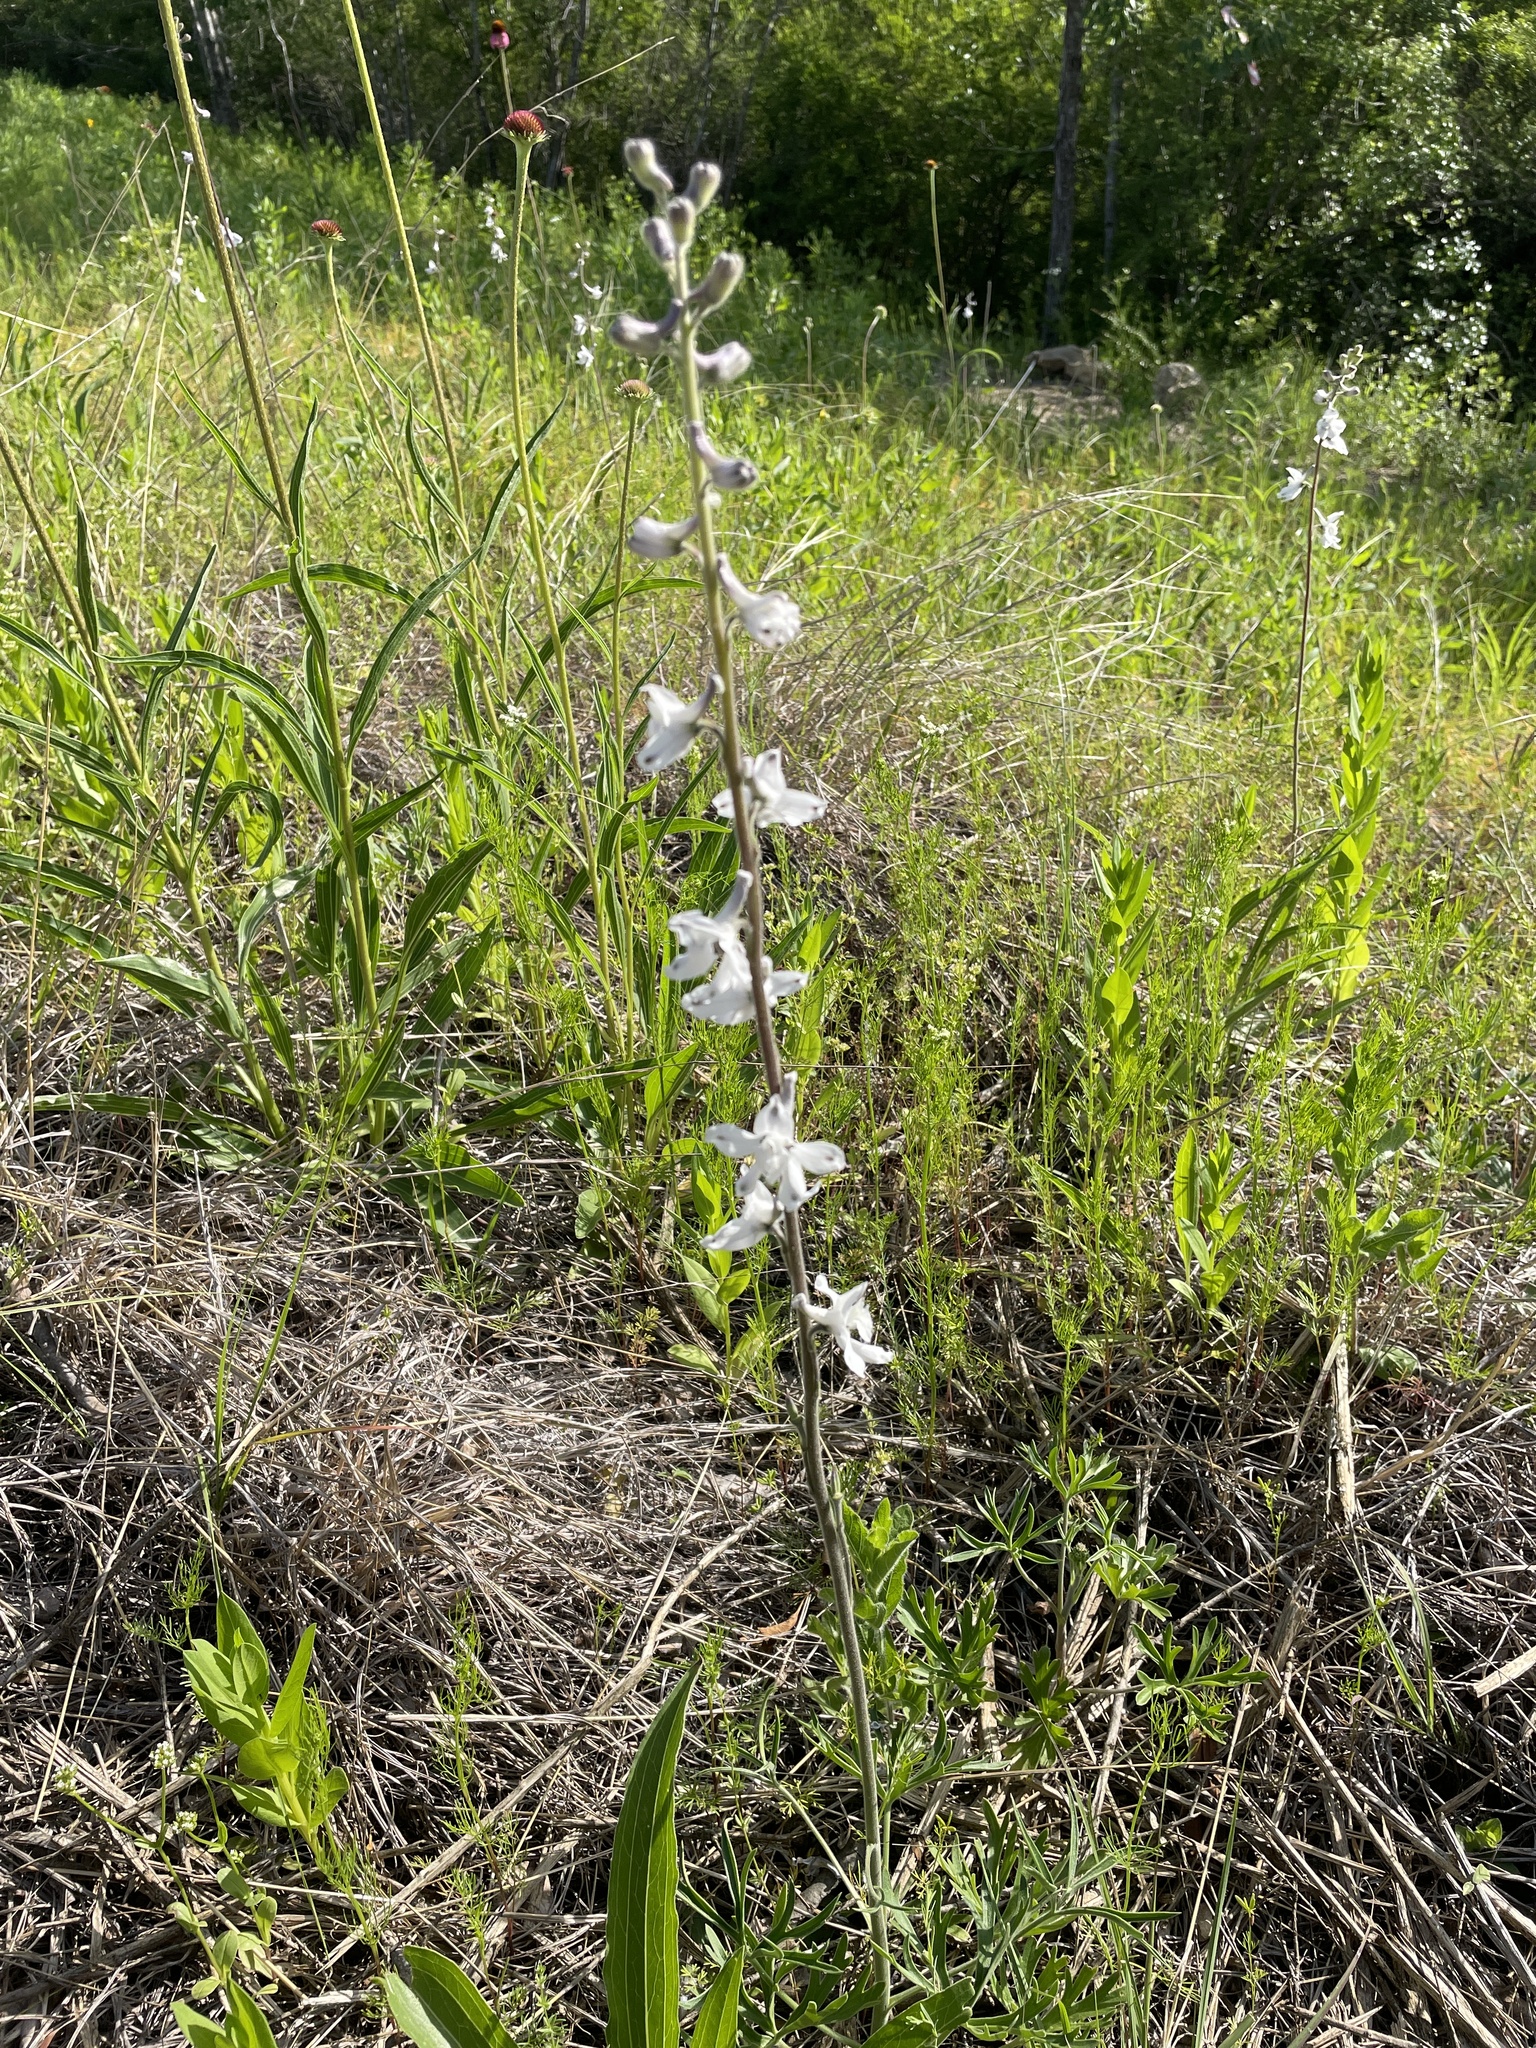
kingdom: Plantae
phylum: Tracheophyta
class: Magnoliopsida
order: Ranunculales
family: Ranunculaceae
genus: Delphinium
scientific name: Delphinium carolinianum
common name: Carolina larkspur
